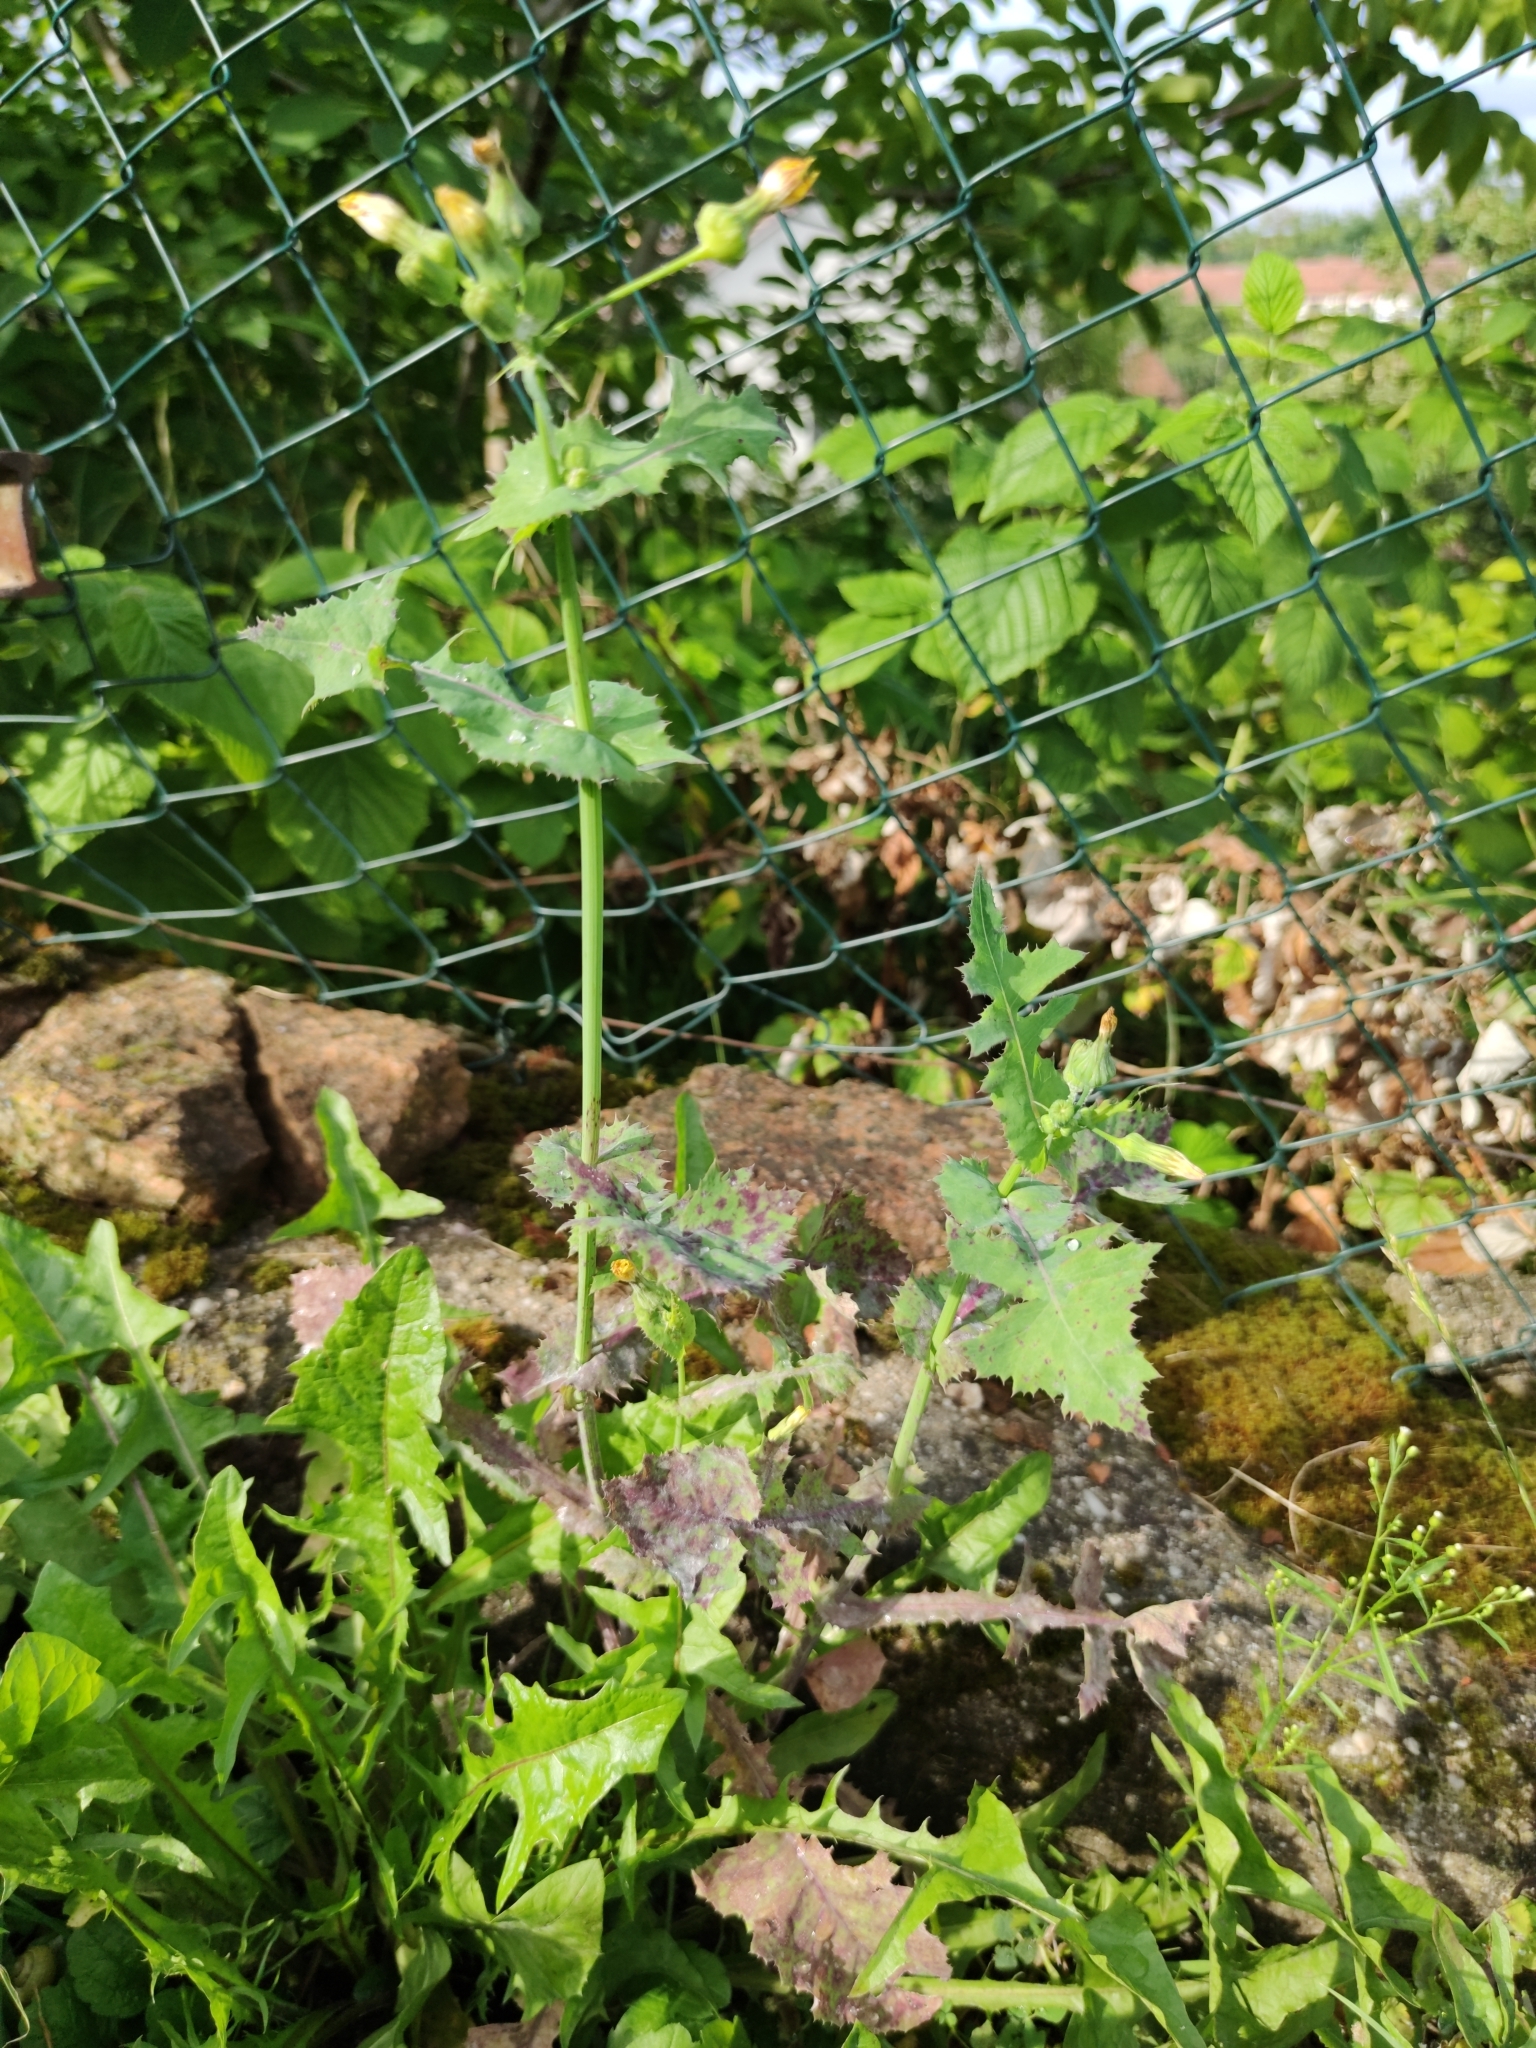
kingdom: Plantae
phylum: Tracheophyta
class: Magnoliopsida
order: Asterales
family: Asteraceae
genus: Sonchus
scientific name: Sonchus oleraceus
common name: Common sowthistle
